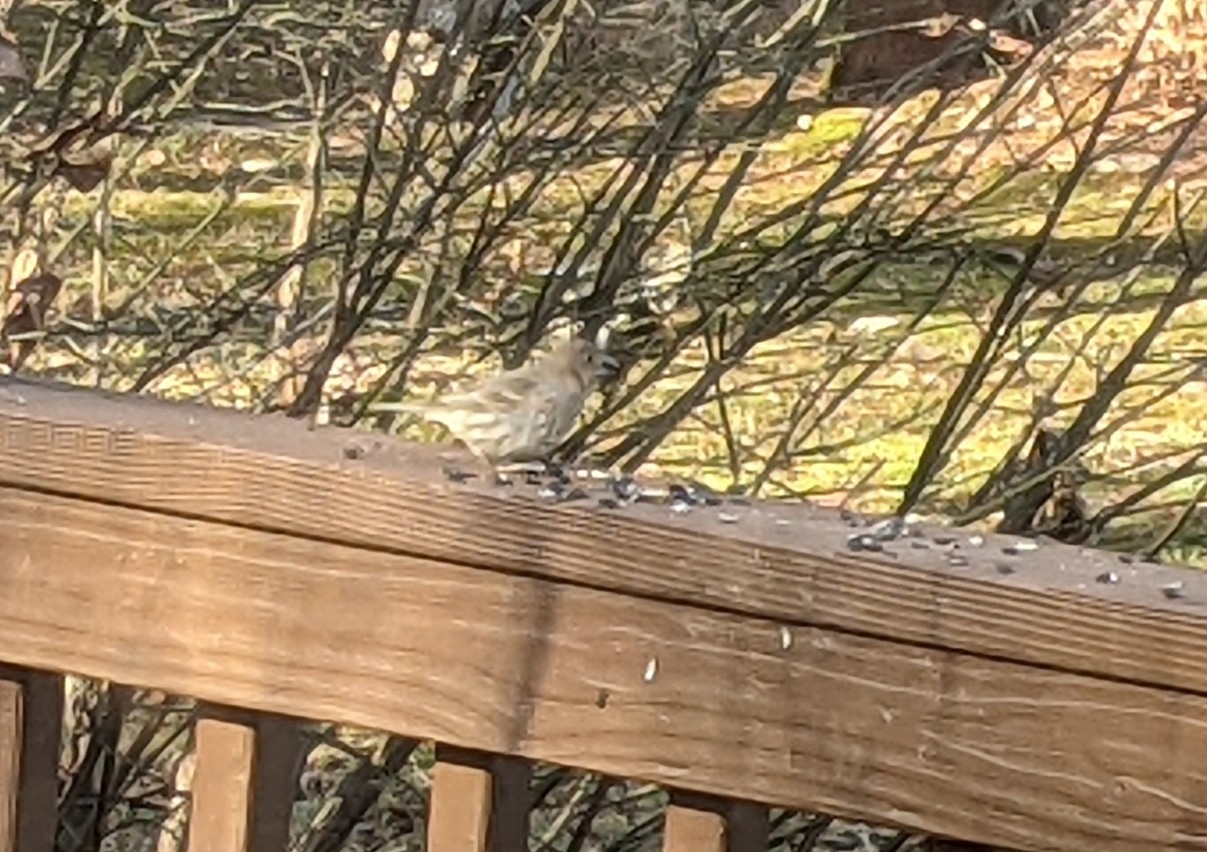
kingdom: Animalia
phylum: Chordata
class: Aves
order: Passeriformes
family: Fringillidae
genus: Haemorhous
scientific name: Haemorhous mexicanus
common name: House finch
